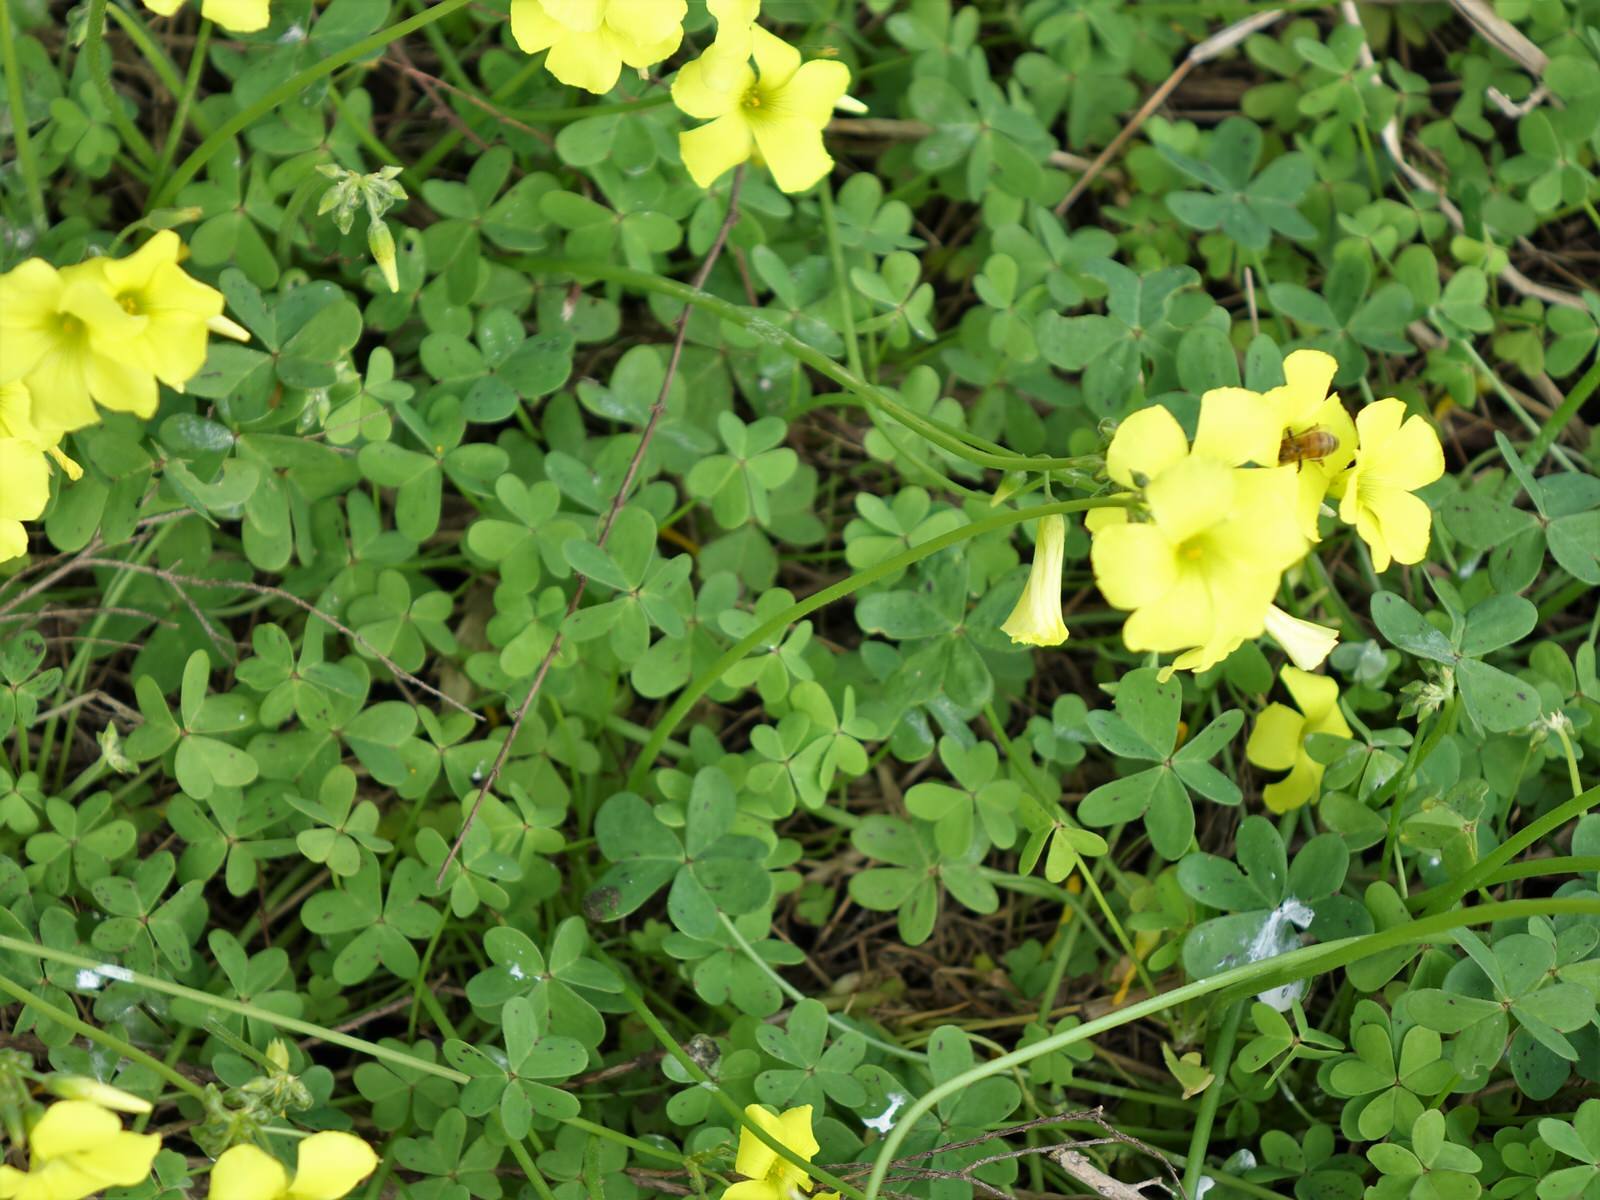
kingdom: Plantae
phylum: Tracheophyta
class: Magnoliopsida
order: Oxalidales
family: Oxalidaceae
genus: Oxalis
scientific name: Oxalis pes-caprae
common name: Bermuda-buttercup
